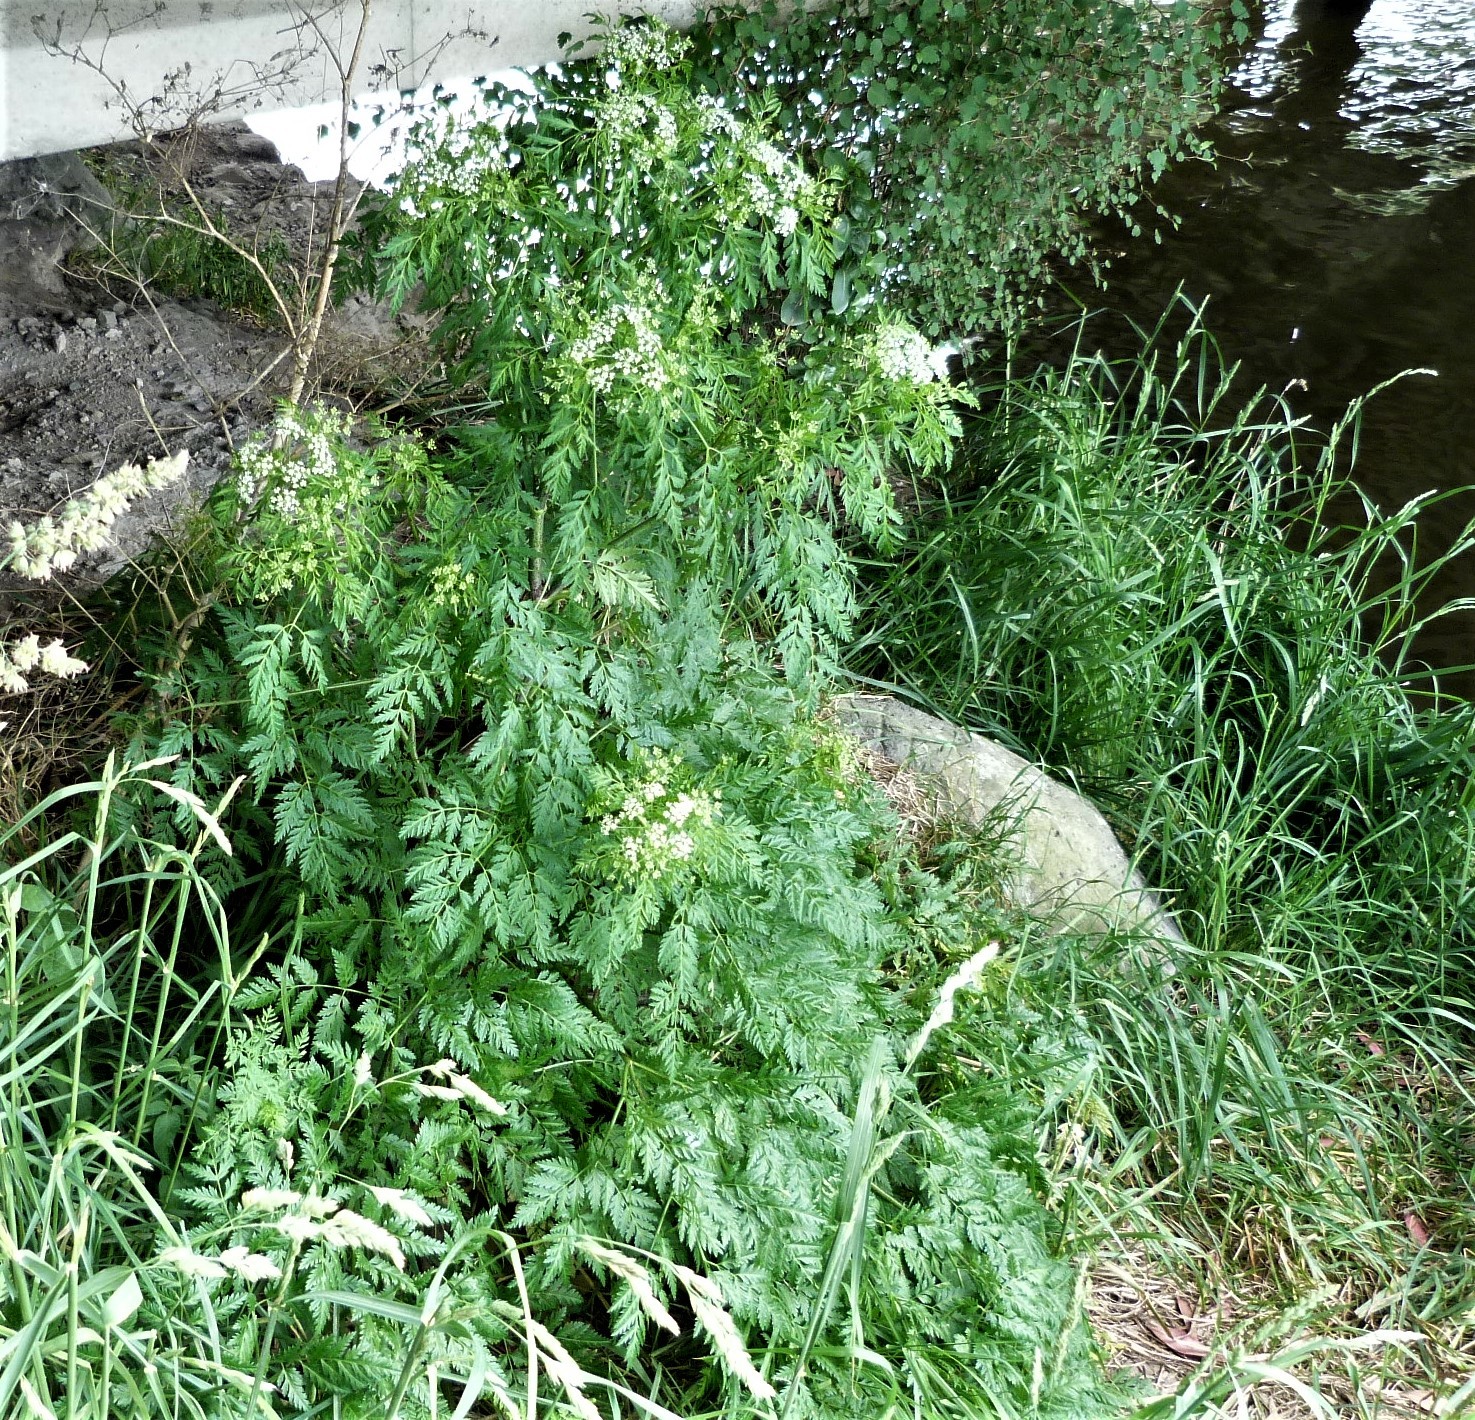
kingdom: Plantae
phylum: Tracheophyta
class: Magnoliopsida
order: Apiales
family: Apiaceae
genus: Conium
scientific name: Conium maculatum
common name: Hemlock
